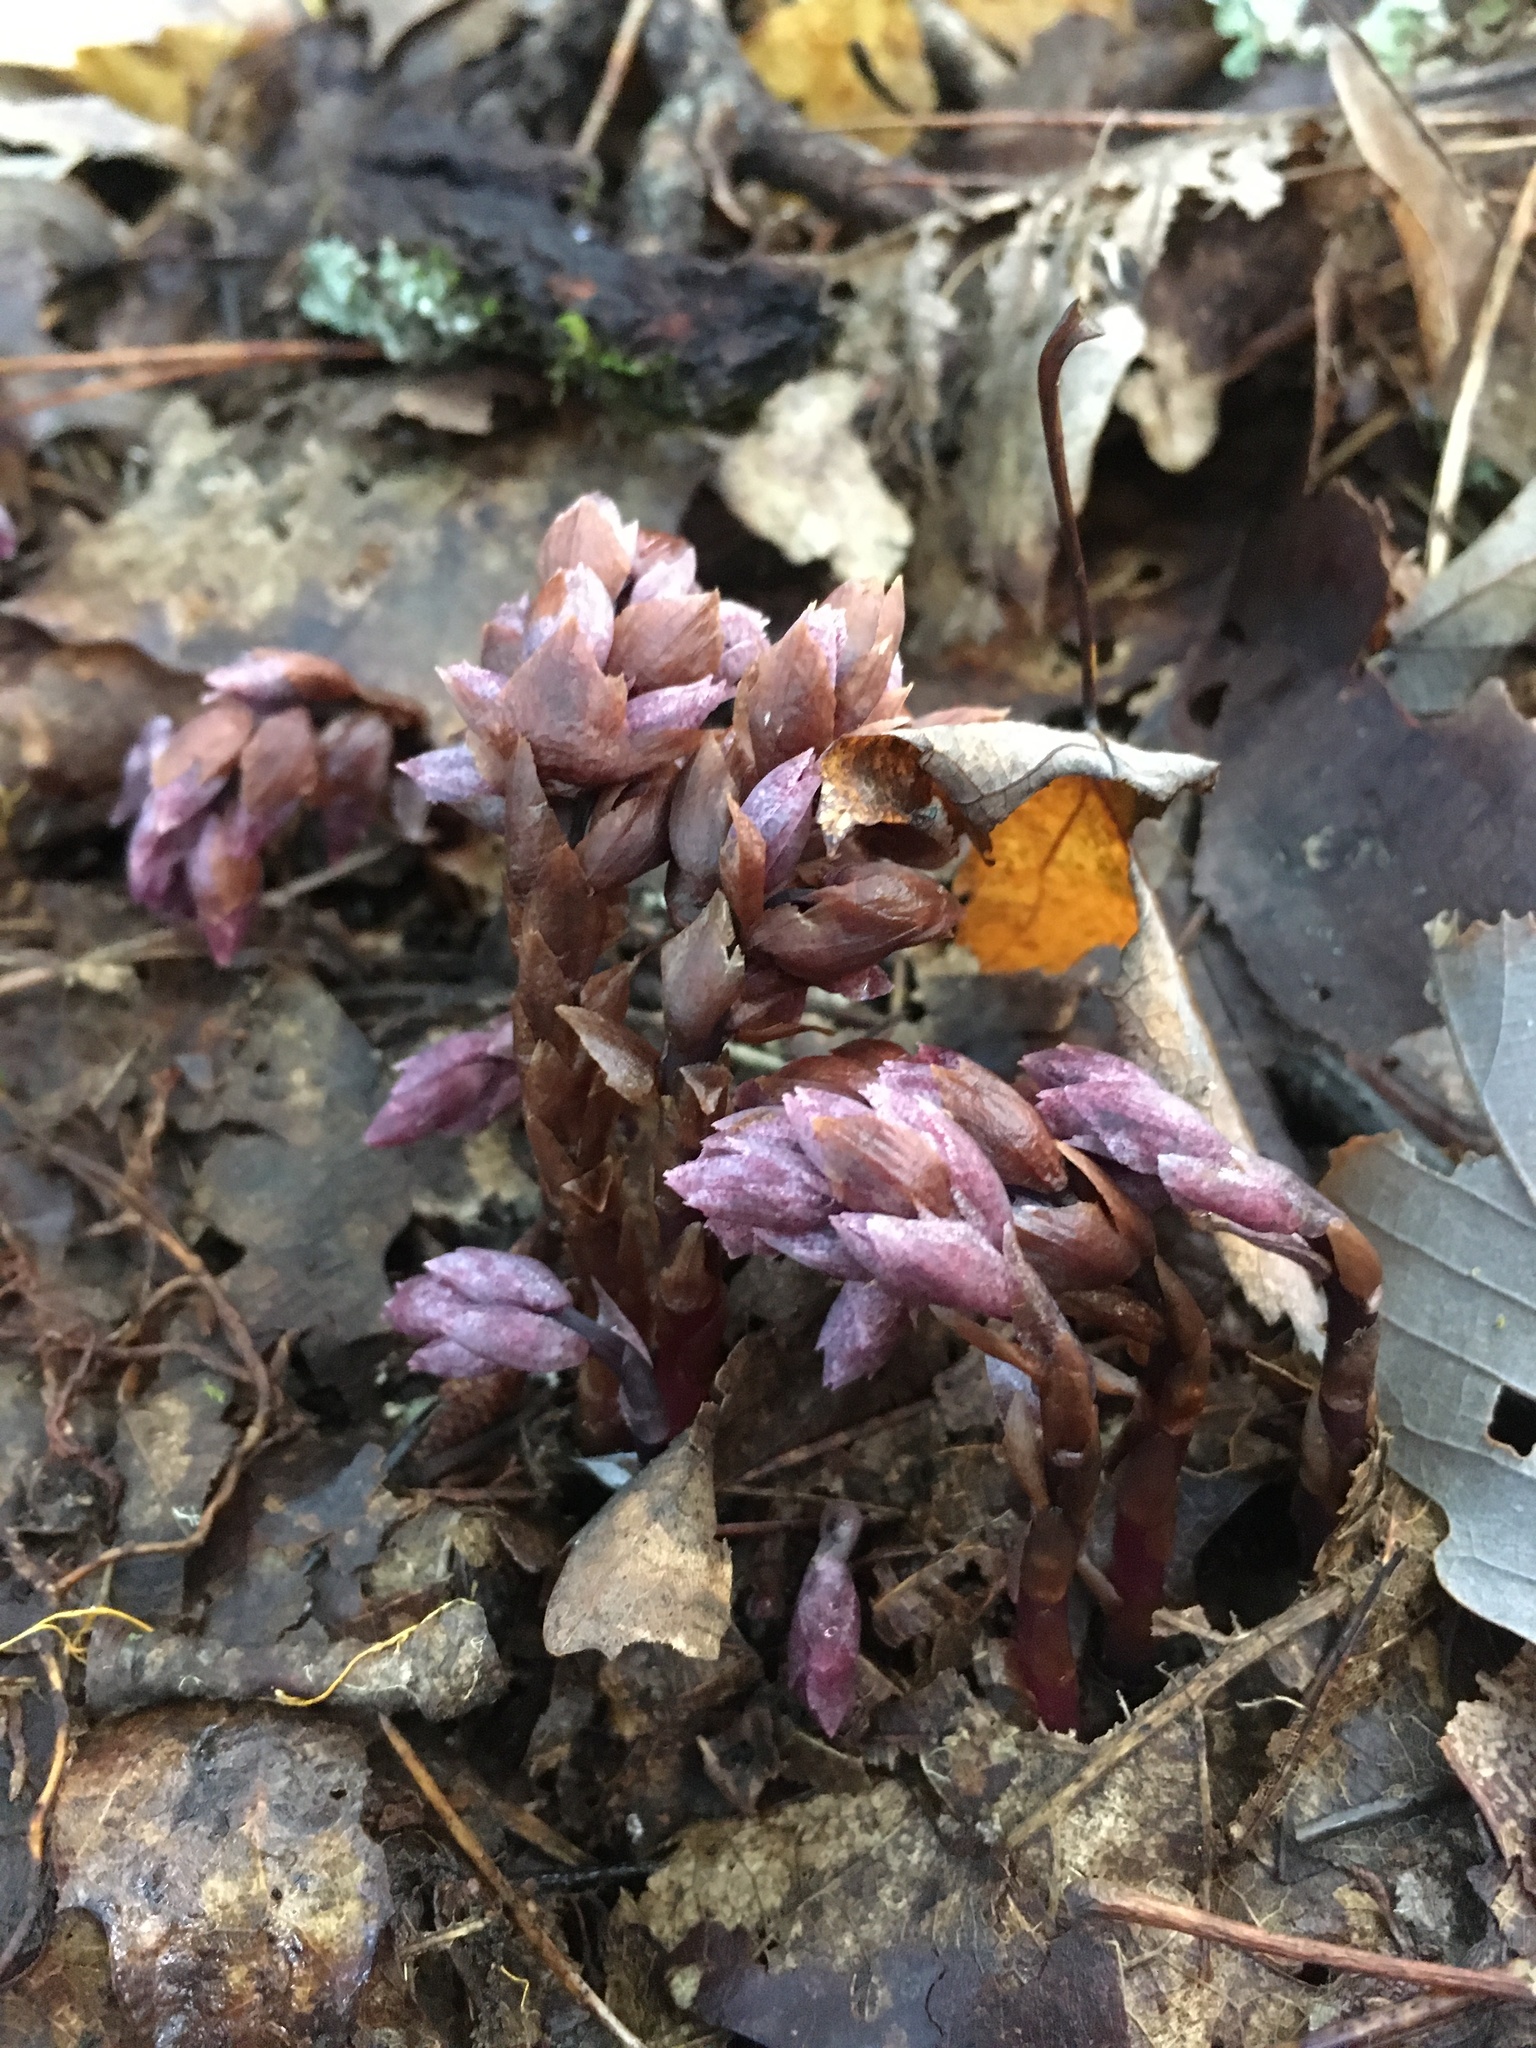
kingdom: Plantae
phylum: Tracheophyta
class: Magnoliopsida
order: Ericales
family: Ericaceae
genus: Monotropsis
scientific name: Monotropsis odorata
